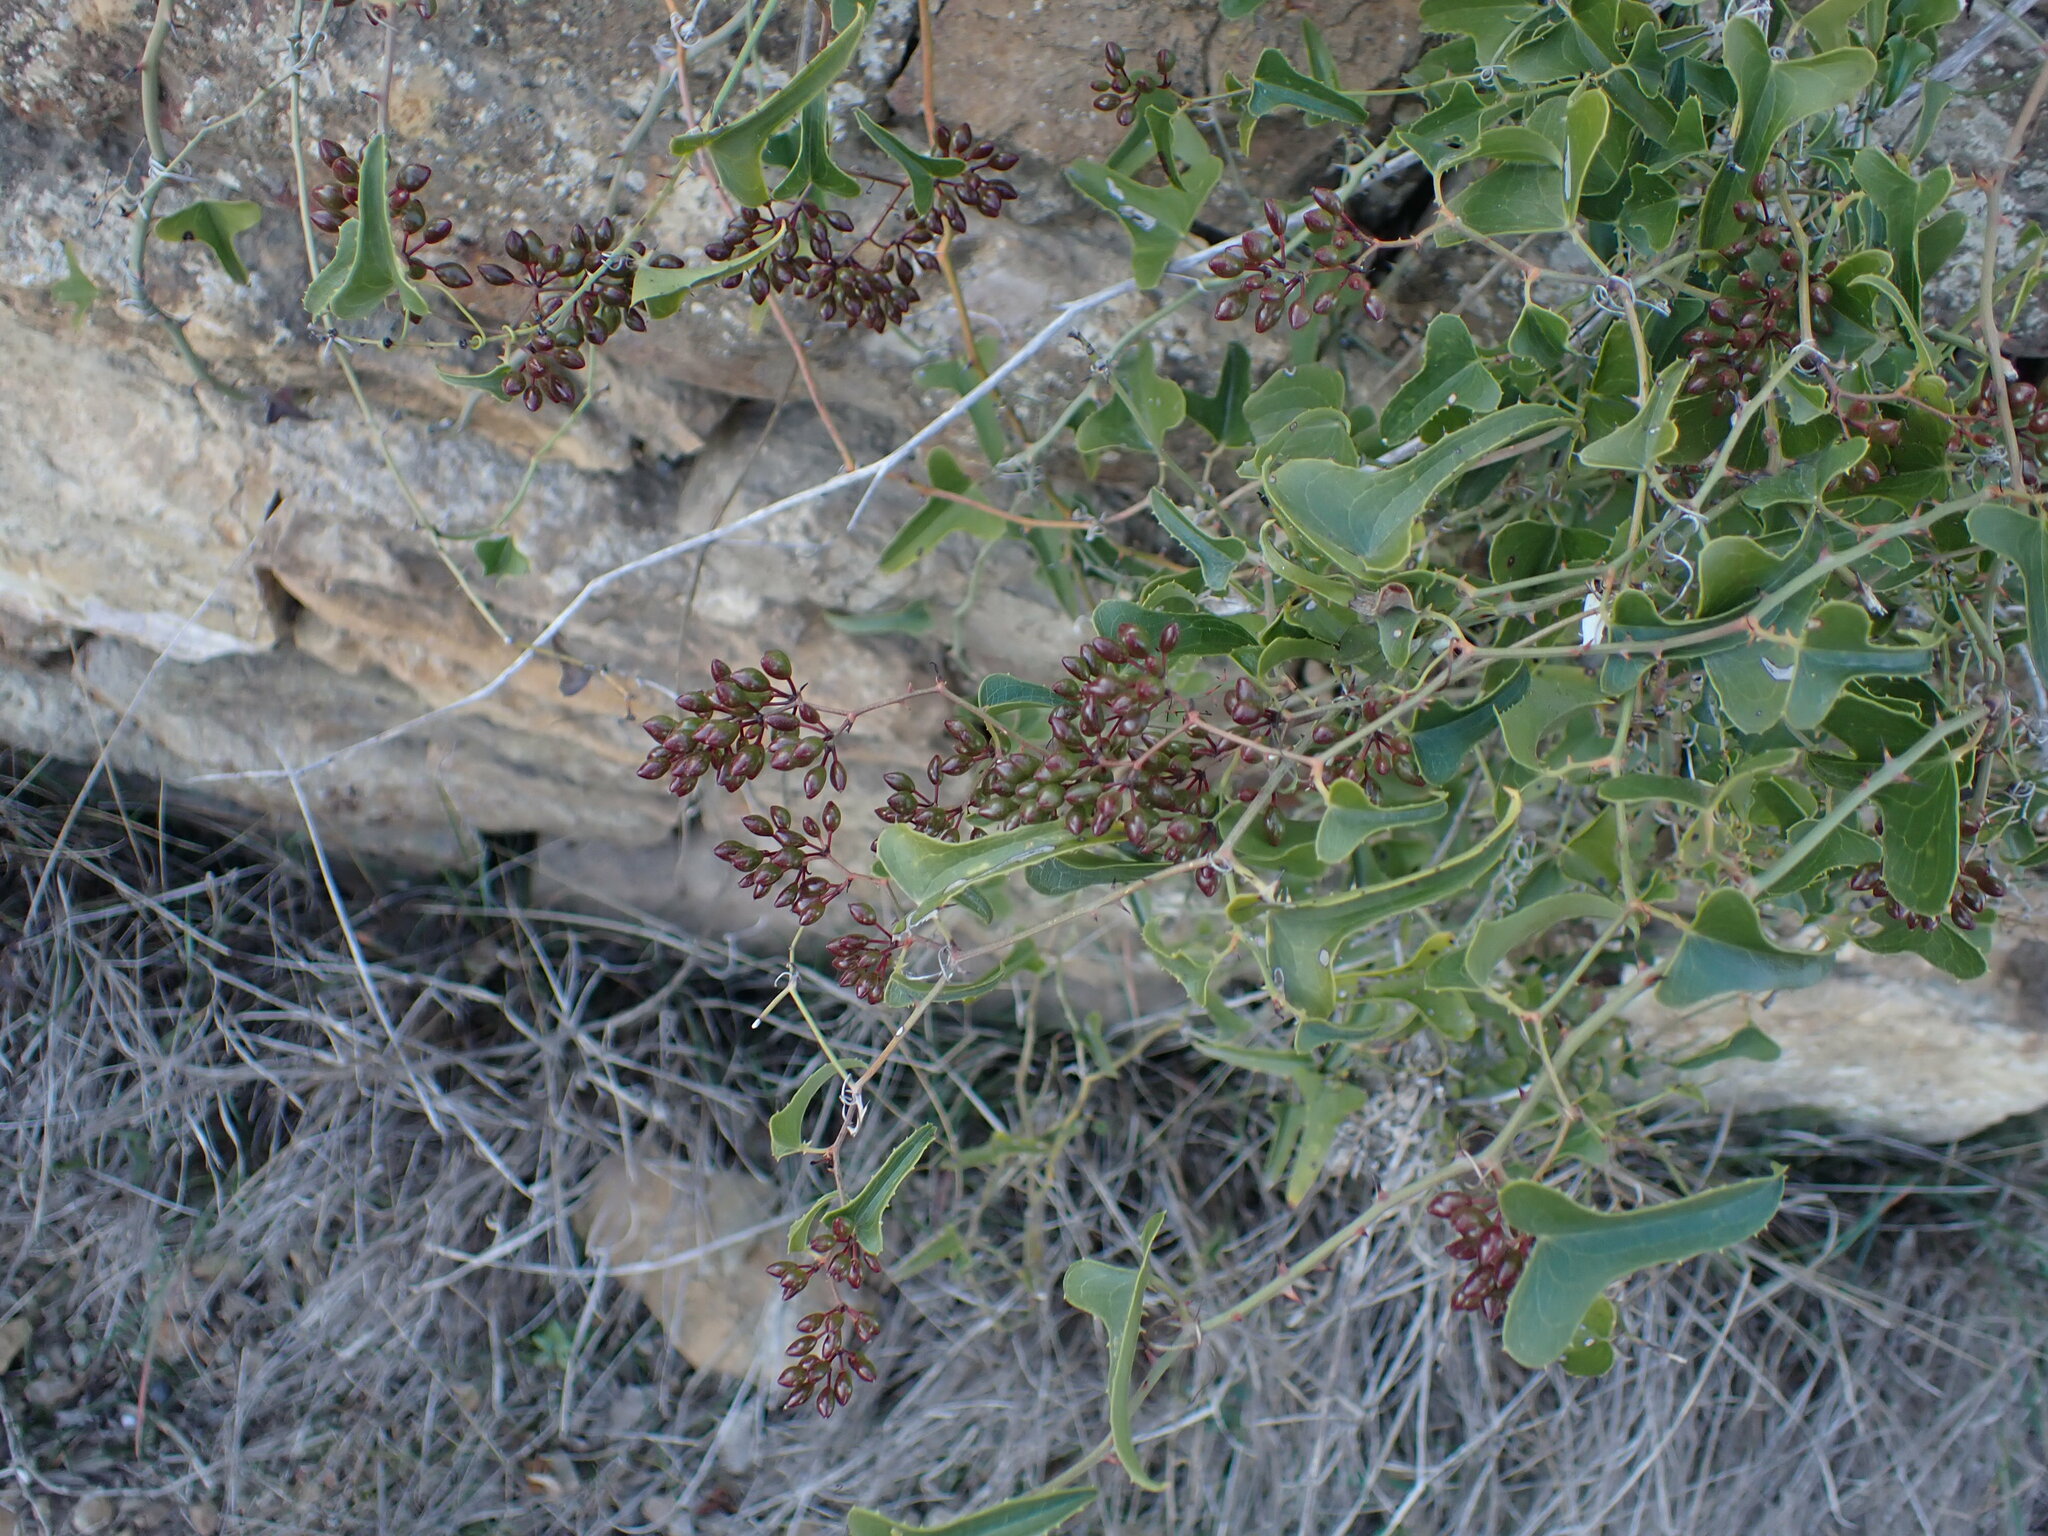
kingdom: Plantae
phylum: Tracheophyta
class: Liliopsida
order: Liliales
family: Smilacaceae
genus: Smilax
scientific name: Smilax aspera
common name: Common smilax
